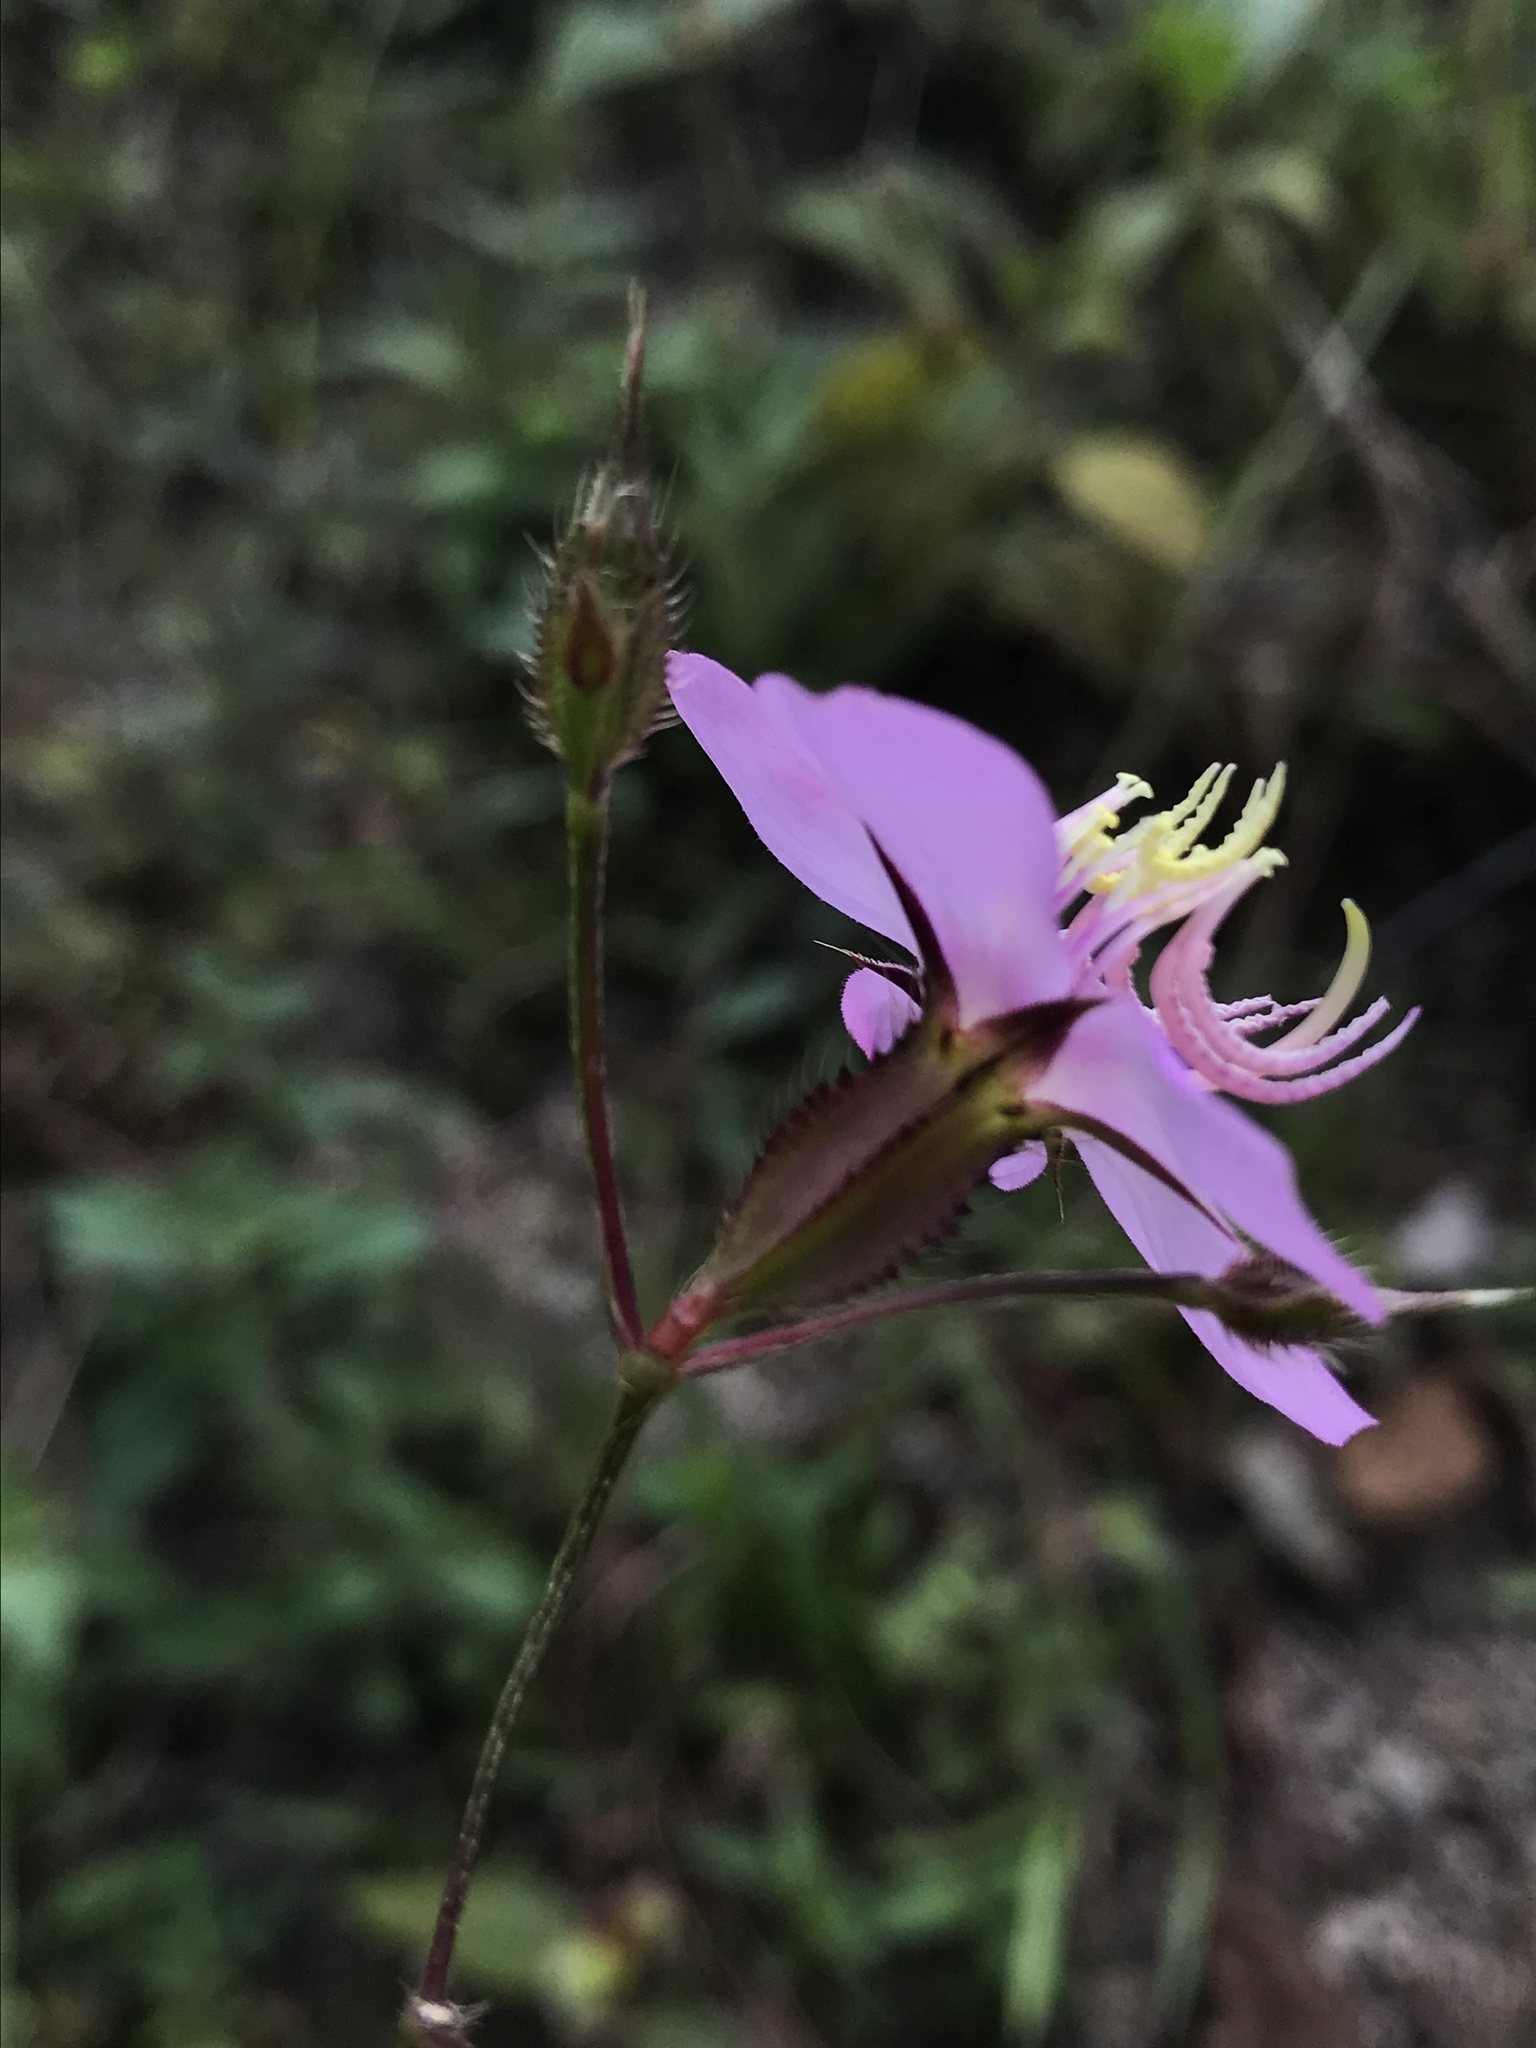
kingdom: Plantae
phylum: Tracheophyta
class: Magnoliopsida
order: Myrtales
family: Melastomataceae
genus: Pterogastra
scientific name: Pterogastra divaricata
